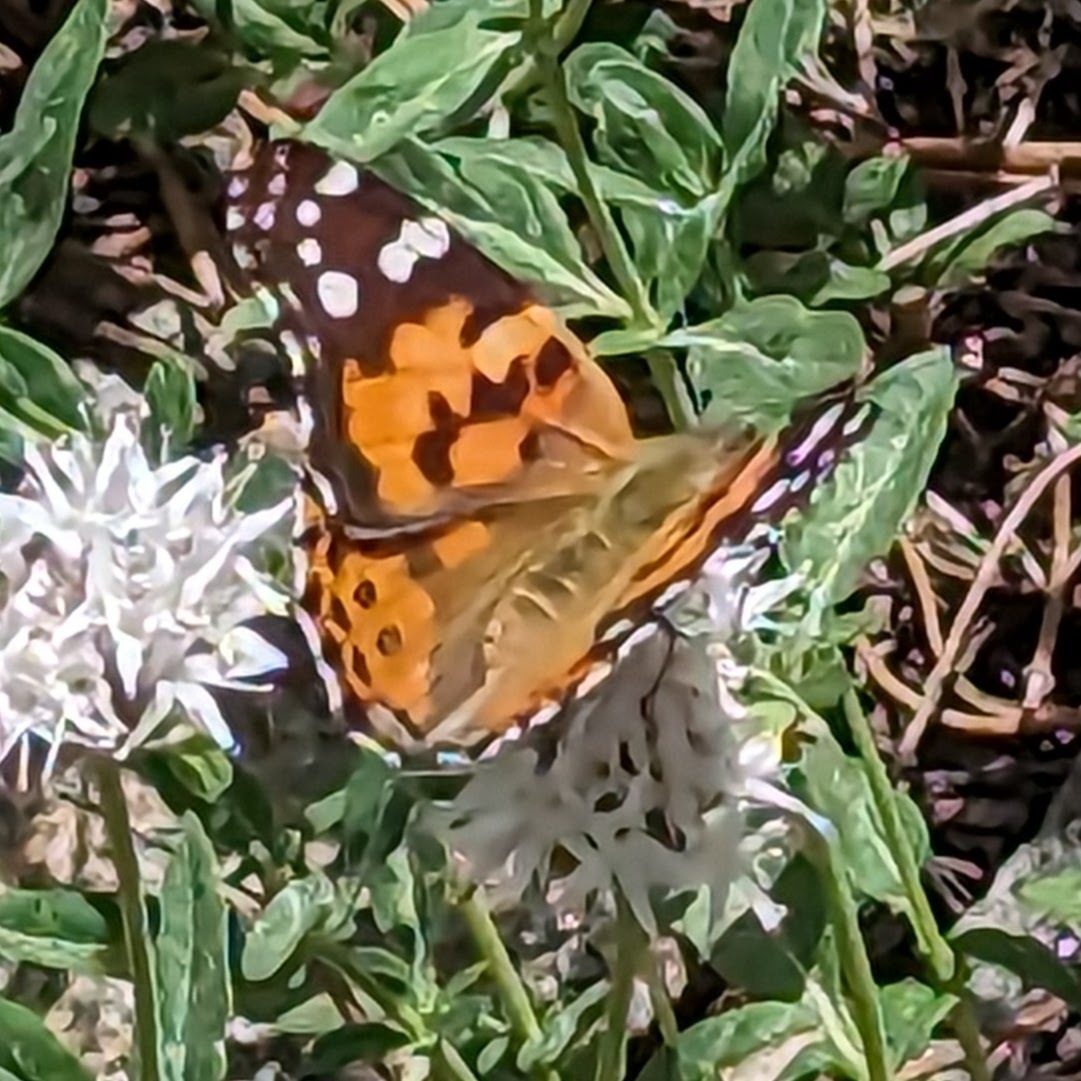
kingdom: Animalia
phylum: Arthropoda
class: Insecta
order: Lepidoptera
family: Nymphalidae
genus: Vanessa
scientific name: Vanessa cardui
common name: Painted lady
